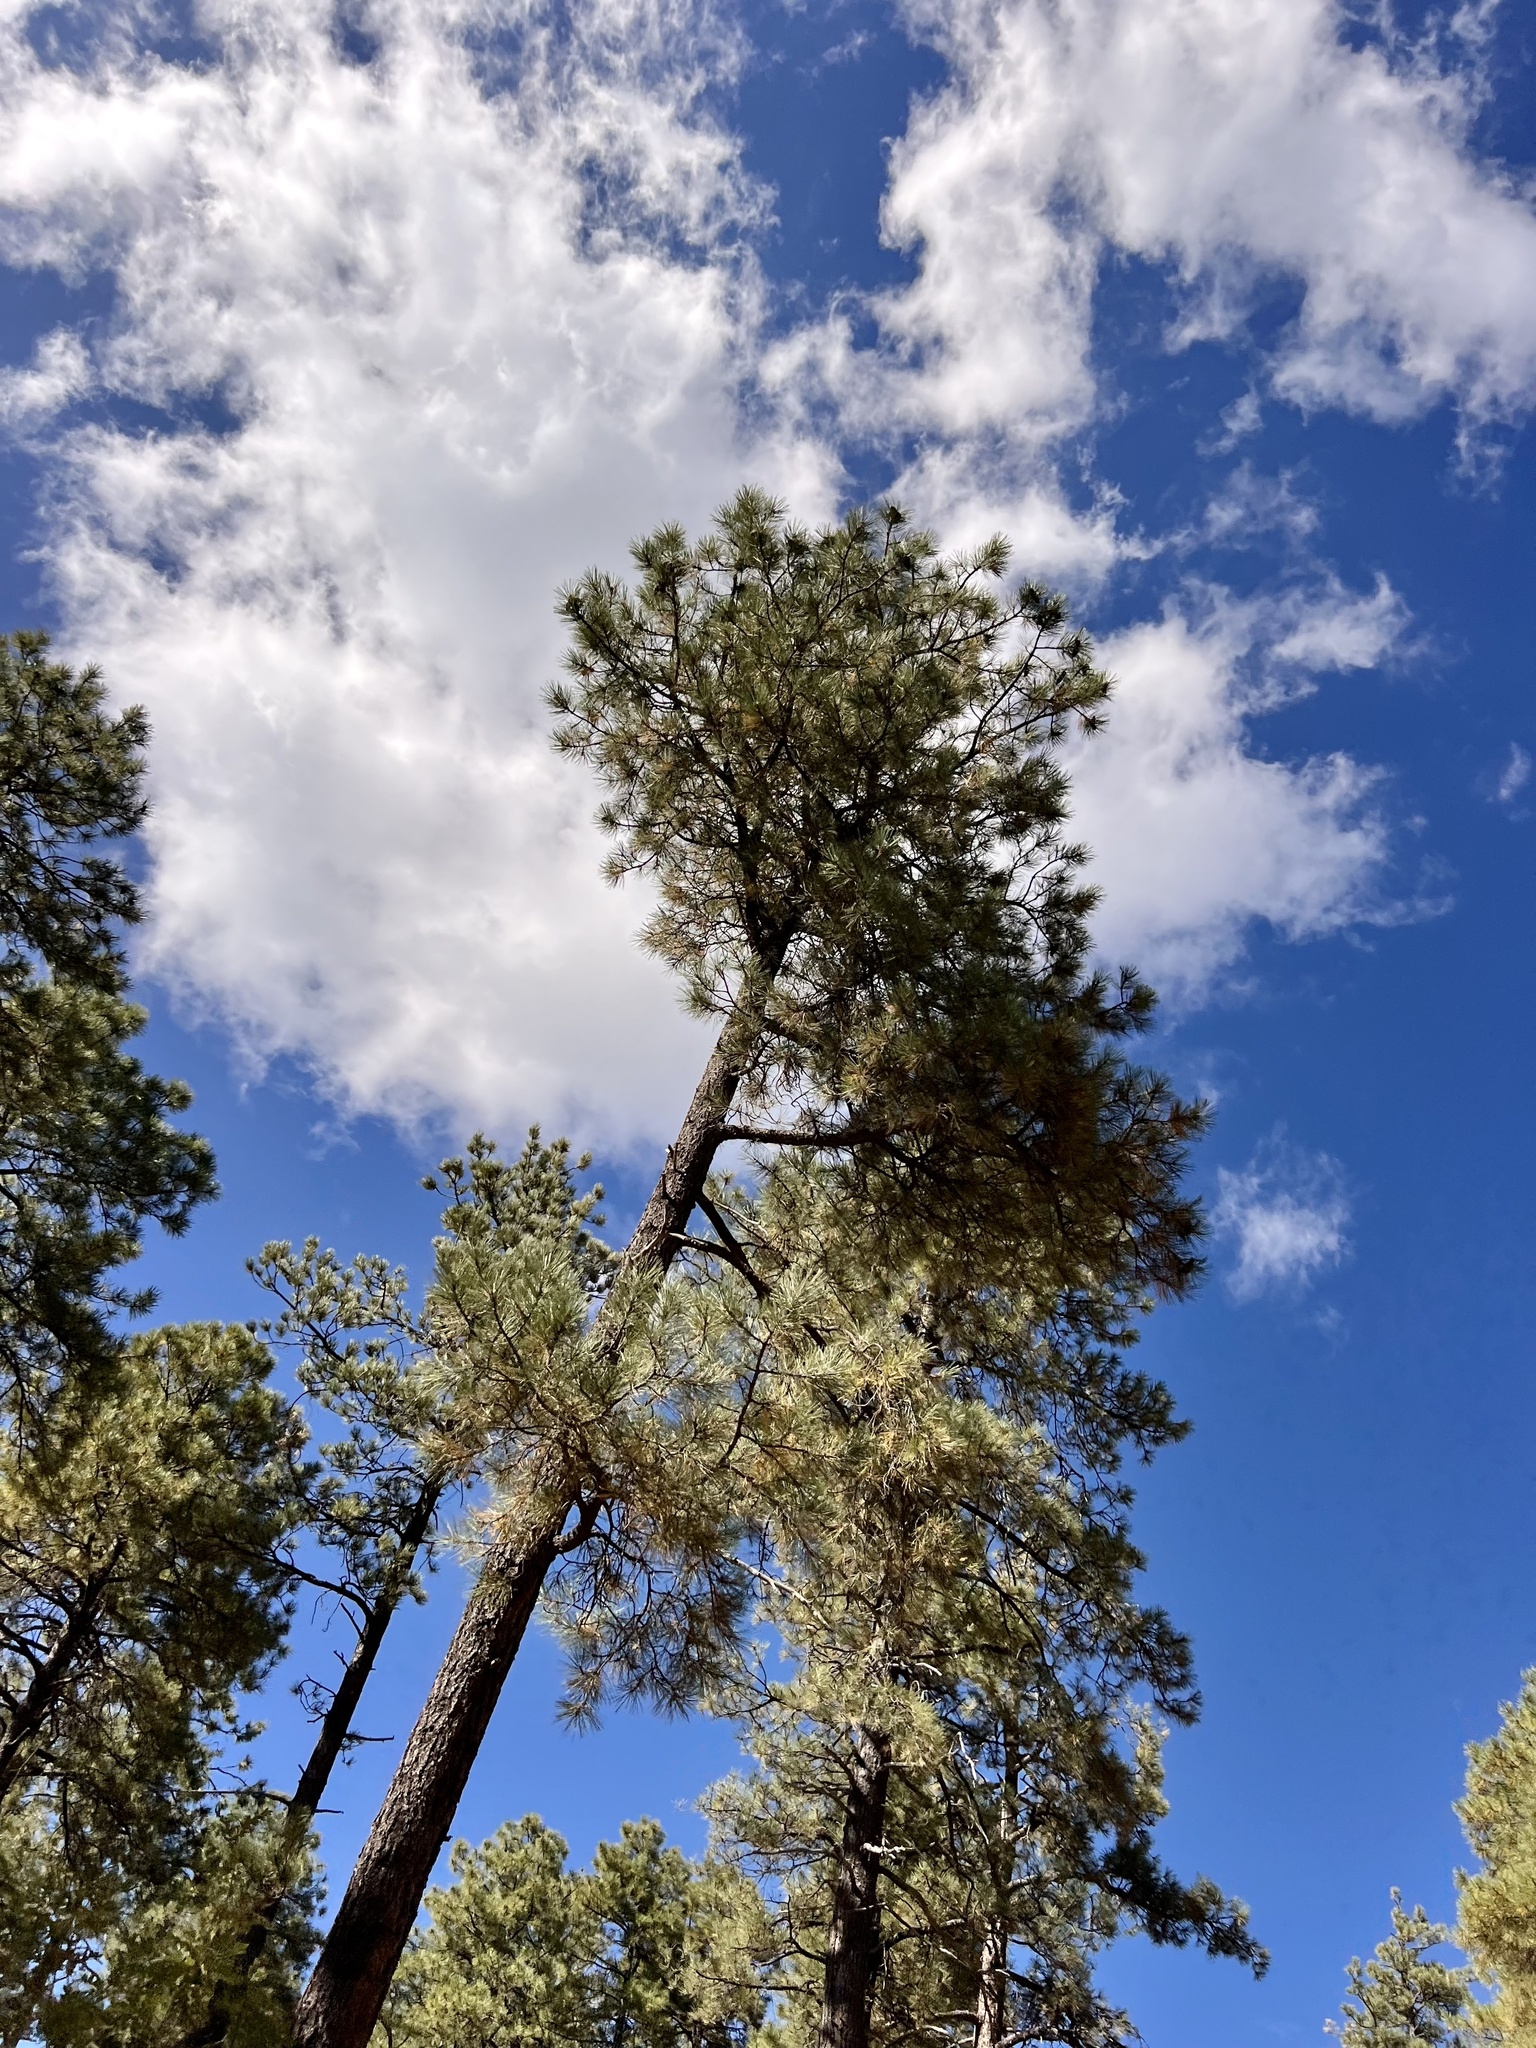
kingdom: Plantae
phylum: Tracheophyta
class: Pinopsida
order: Pinales
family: Pinaceae
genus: Pinus
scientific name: Pinus ponderosa
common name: Western yellow-pine
